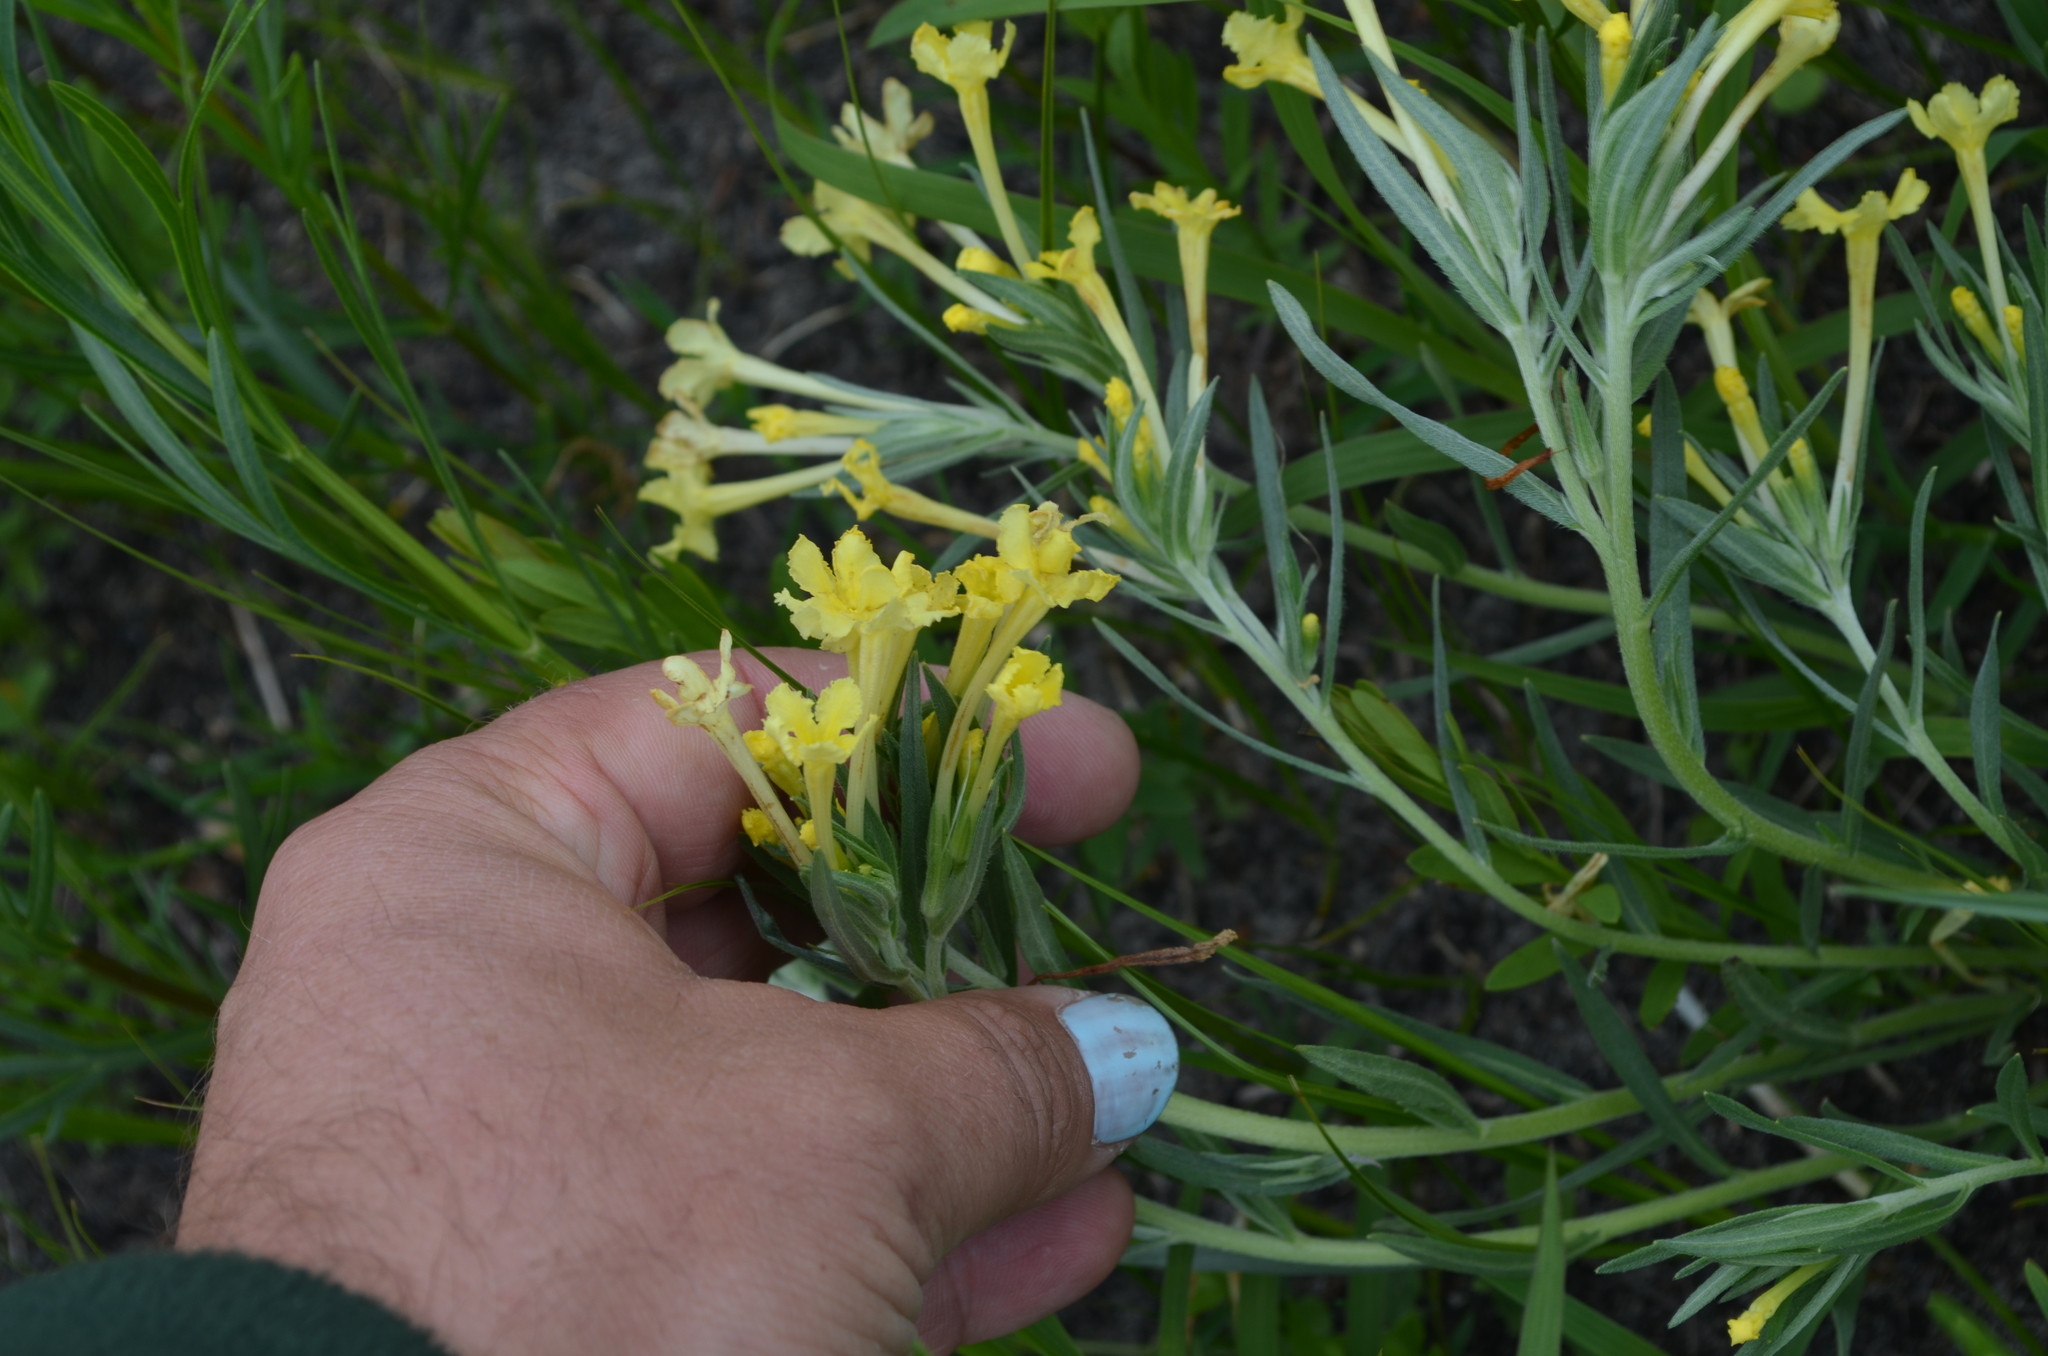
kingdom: Plantae
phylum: Tracheophyta
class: Magnoliopsida
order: Boraginales
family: Boraginaceae
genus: Lithospermum
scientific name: Lithospermum incisum
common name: Fringed gromwell
